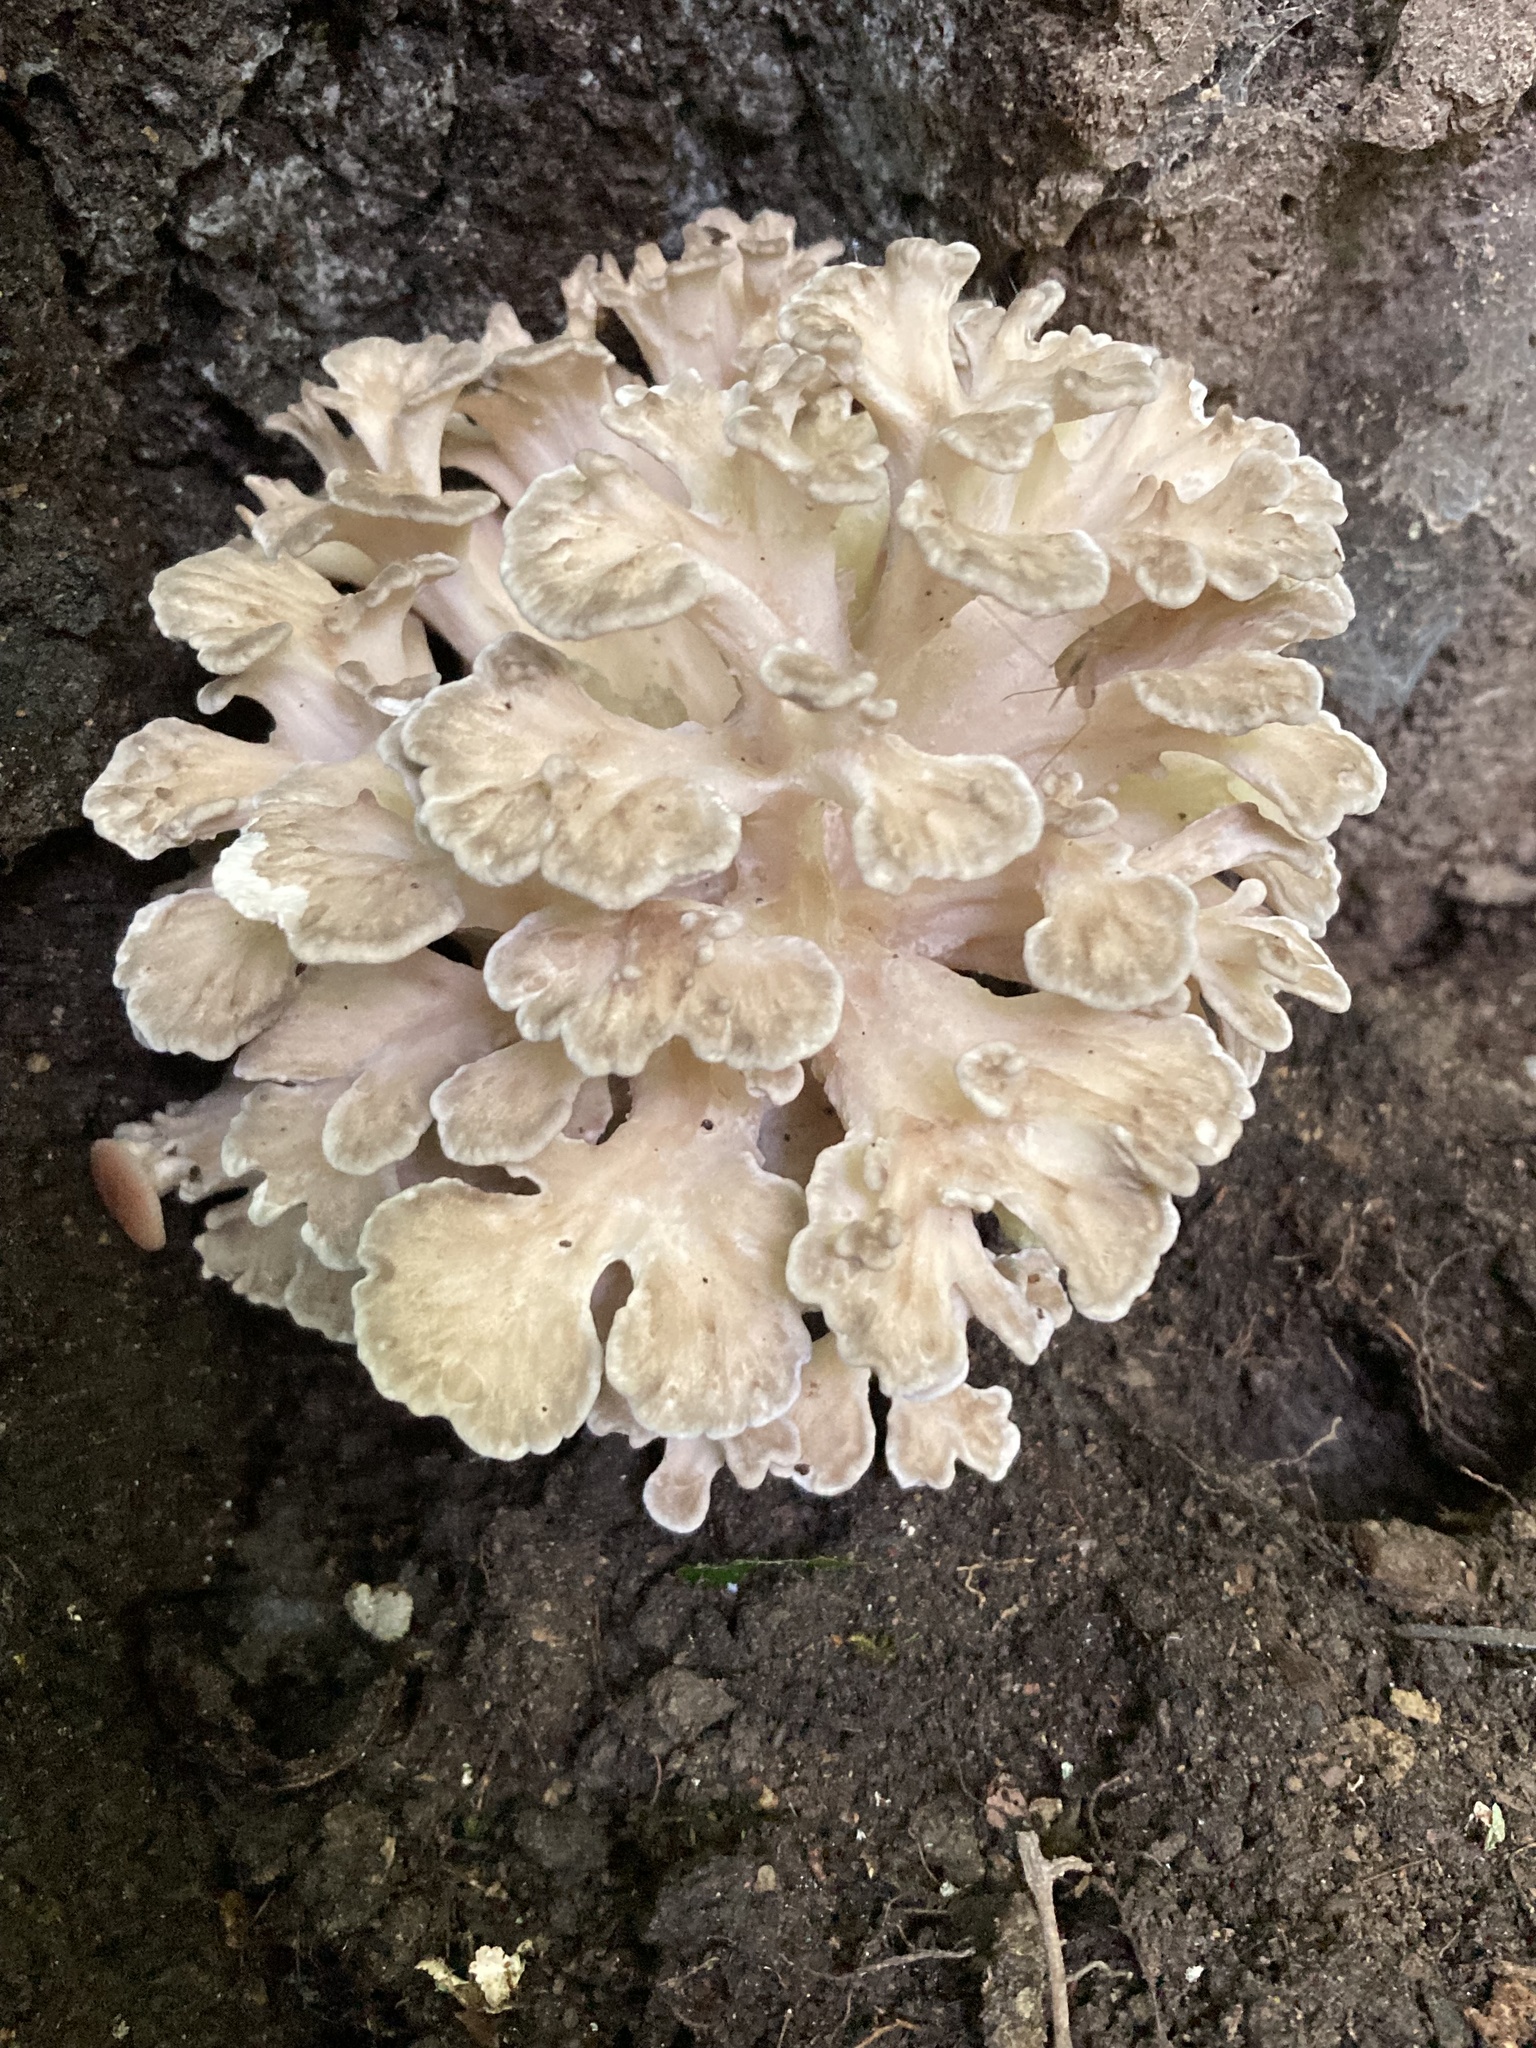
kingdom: Fungi
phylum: Basidiomycota
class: Agaricomycetes
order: Polyporales
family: Grifolaceae
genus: Grifola
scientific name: Grifola frondosa
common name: Hen of the woods
